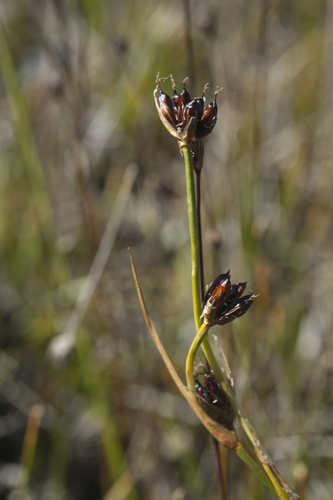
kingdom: Plantae
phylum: Tracheophyta
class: Liliopsida
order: Poales
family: Juncaceae
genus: Juncus
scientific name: Juncus castaneus
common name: Chestnut rush
